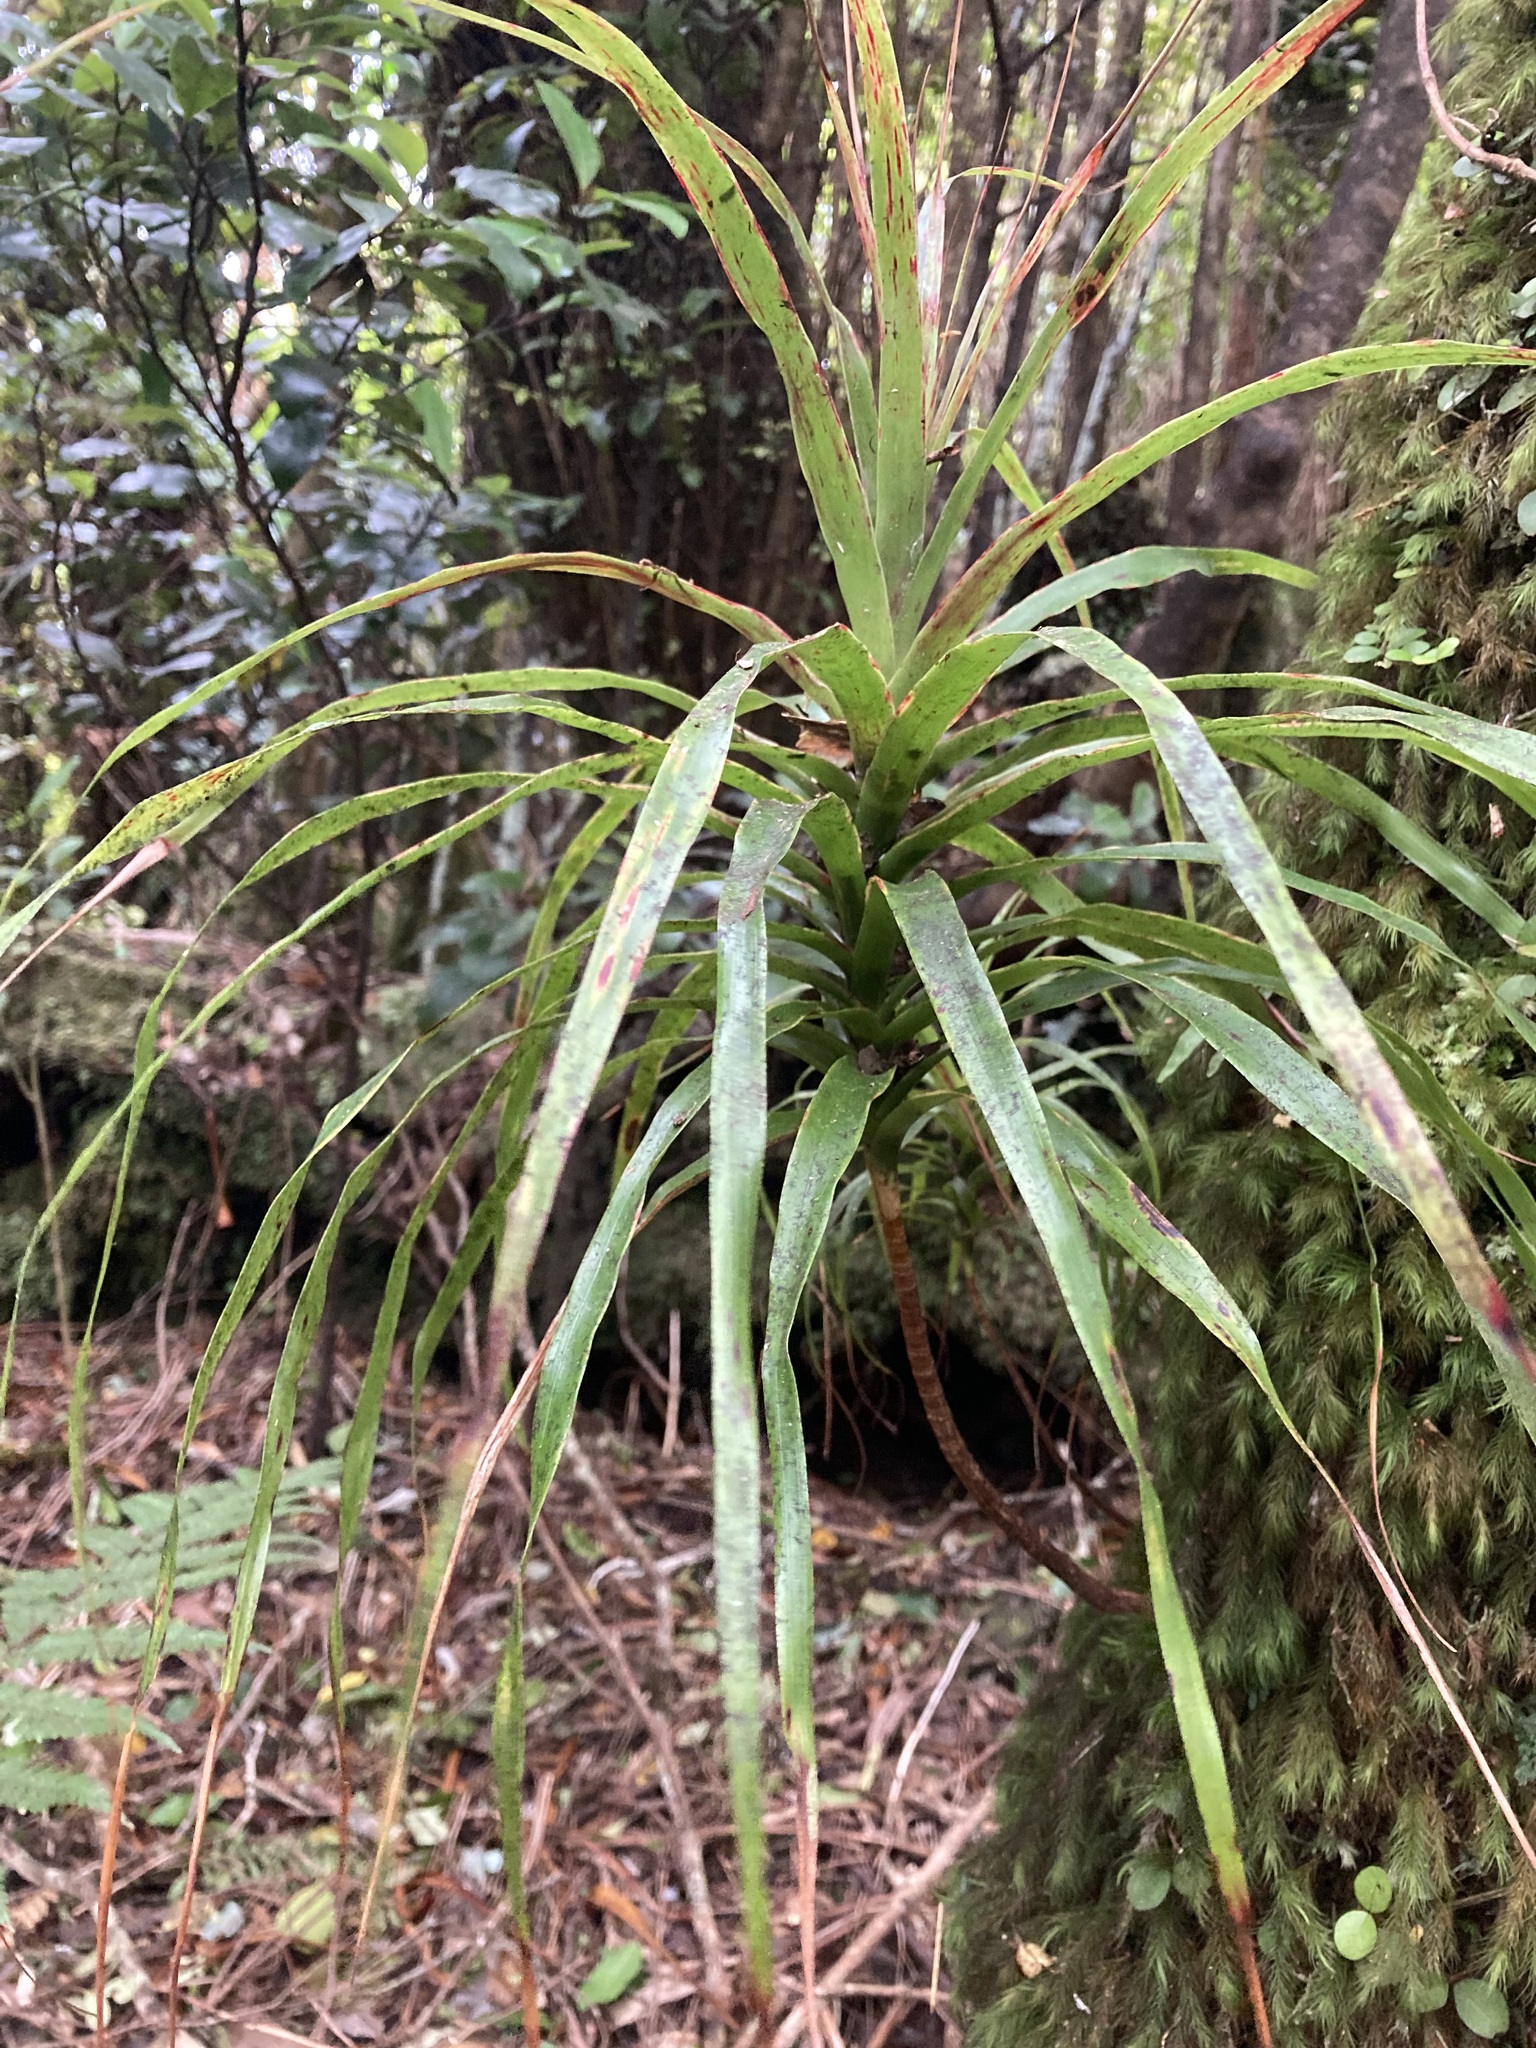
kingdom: Plantae
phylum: Tracheophyta
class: Magnoliopsida
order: Ericales
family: Ericaceae
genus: Dracophyllum
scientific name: Dracophyllum latifolium
